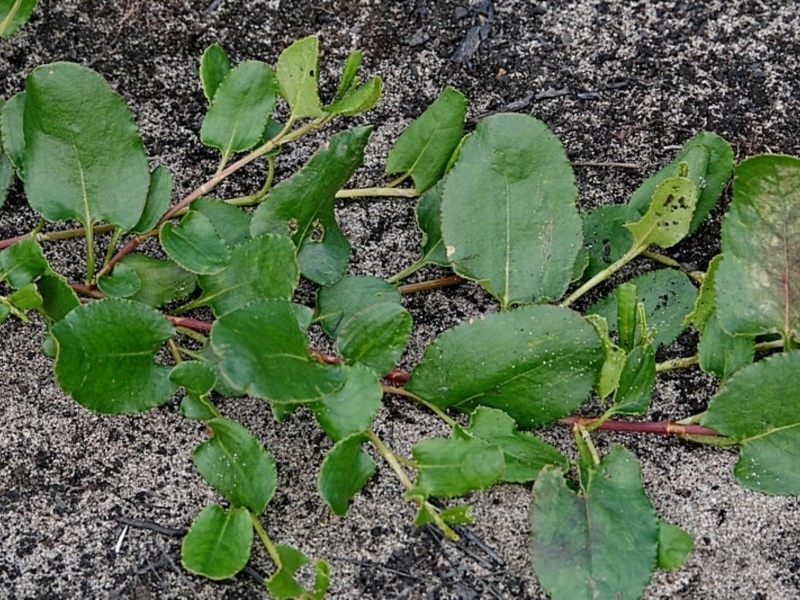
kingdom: Plantae
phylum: Tracheophyta
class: Magnoliopsida
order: Caryophyllales
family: Polygonaceae
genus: Muehlenbeckia
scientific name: Muehlenbeckia adpressa
